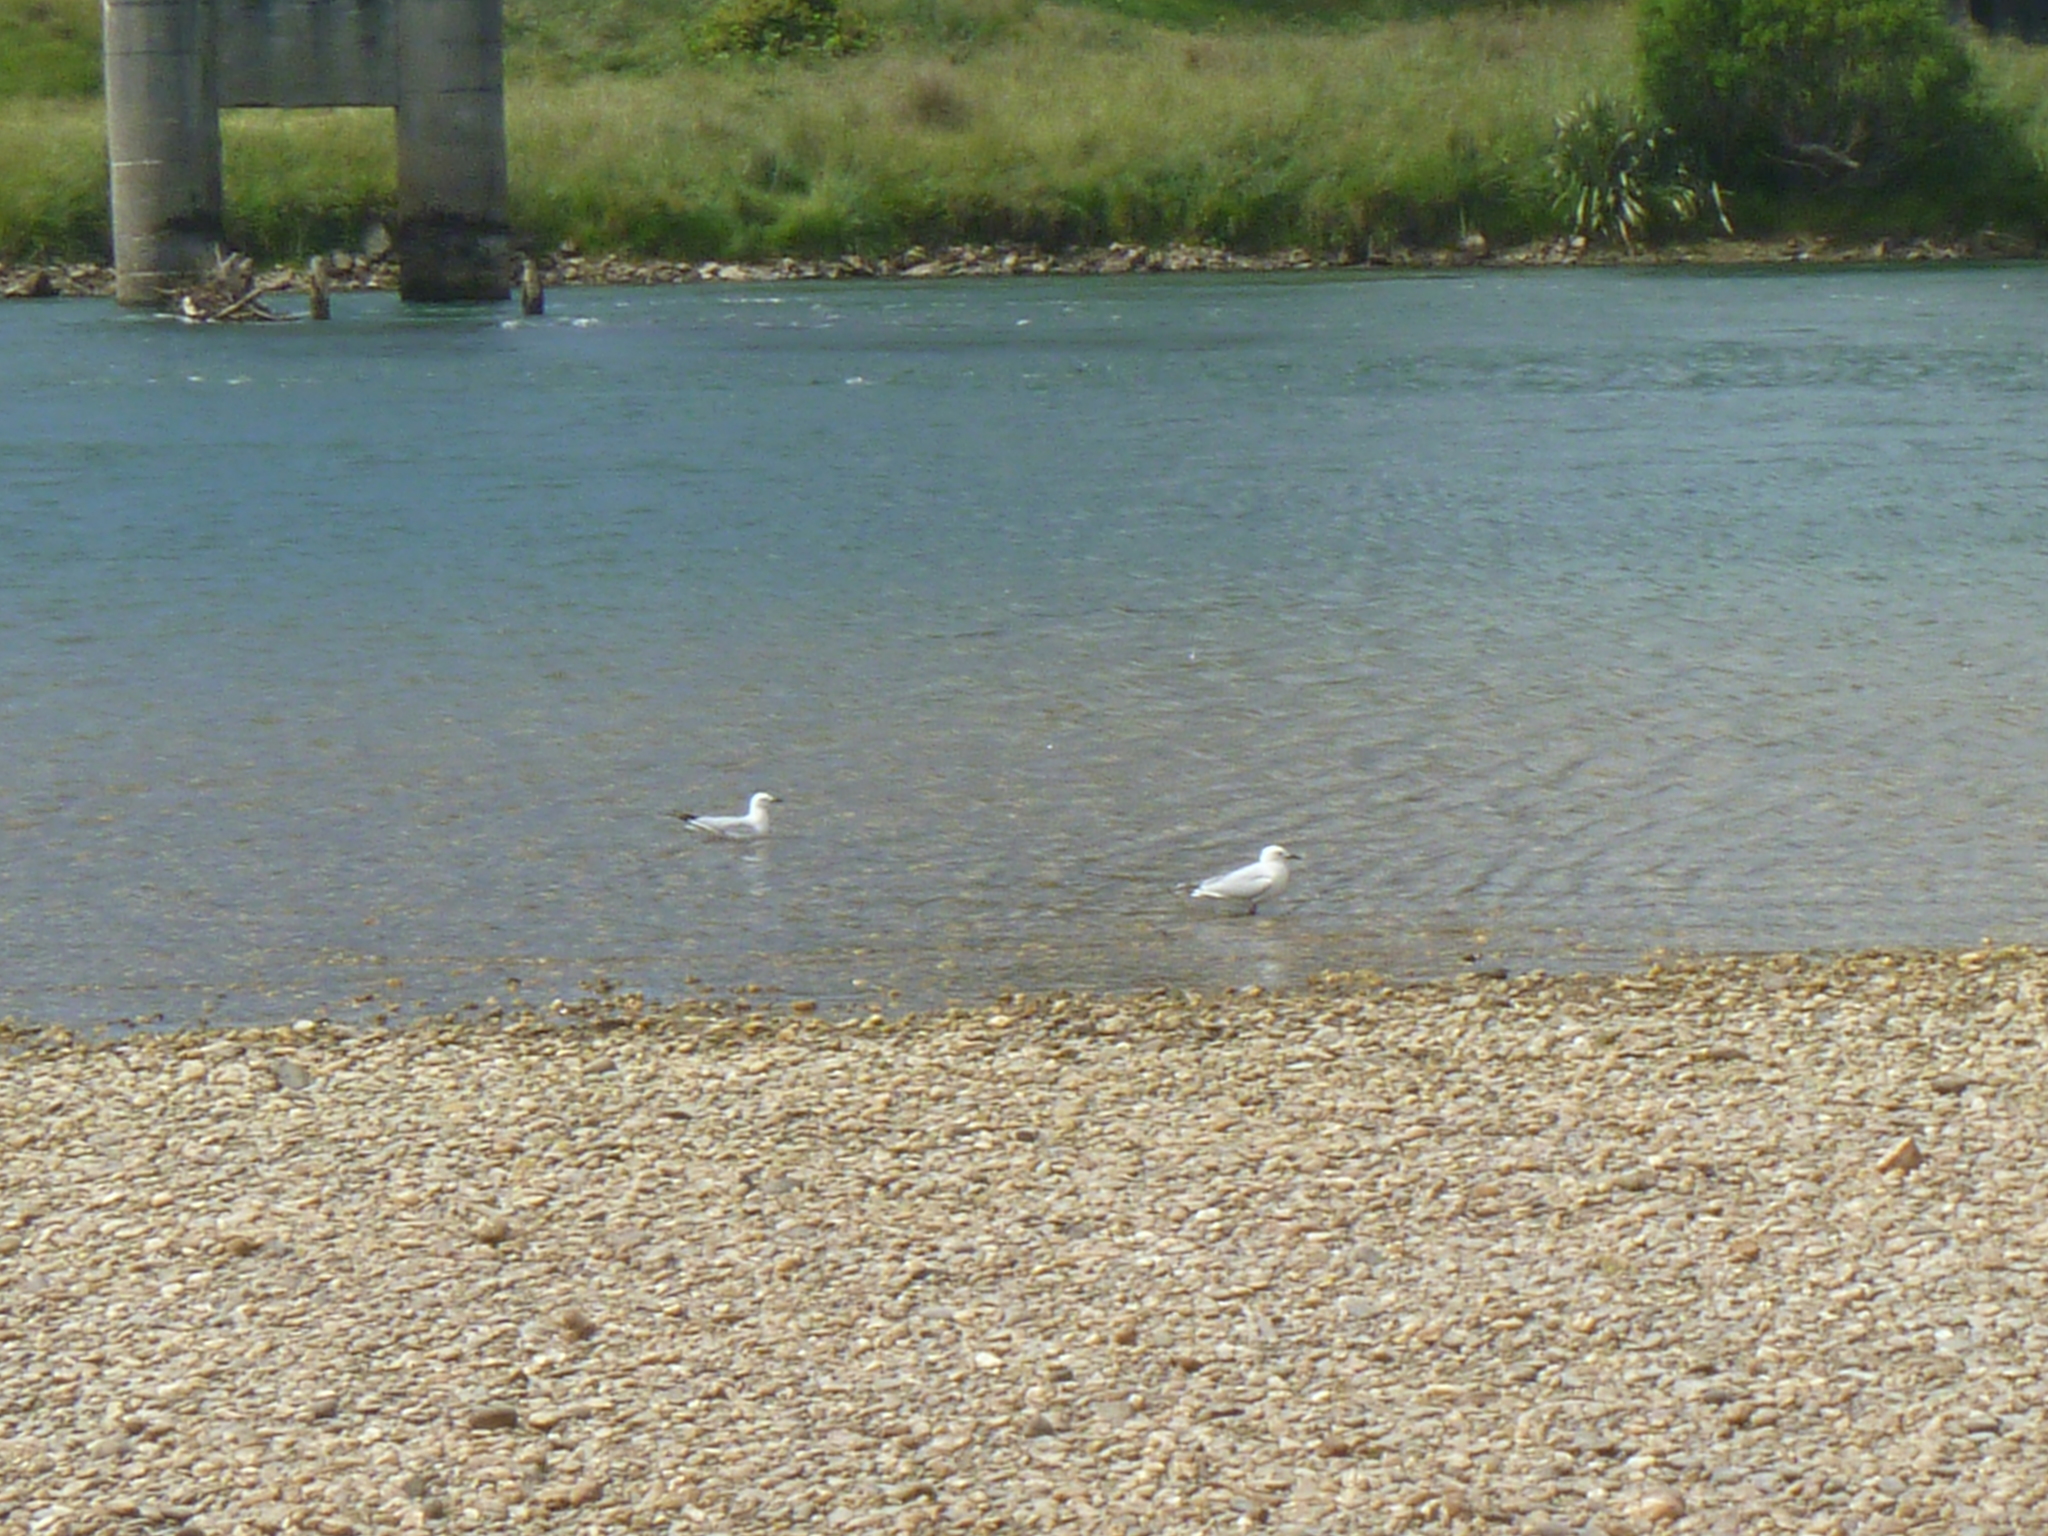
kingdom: Animalia
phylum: Chordata
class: Aves
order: Charadriiformes
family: Laridae
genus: Chroicocephalus
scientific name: Chroicocephalus bulleri
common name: Black-billed gull
